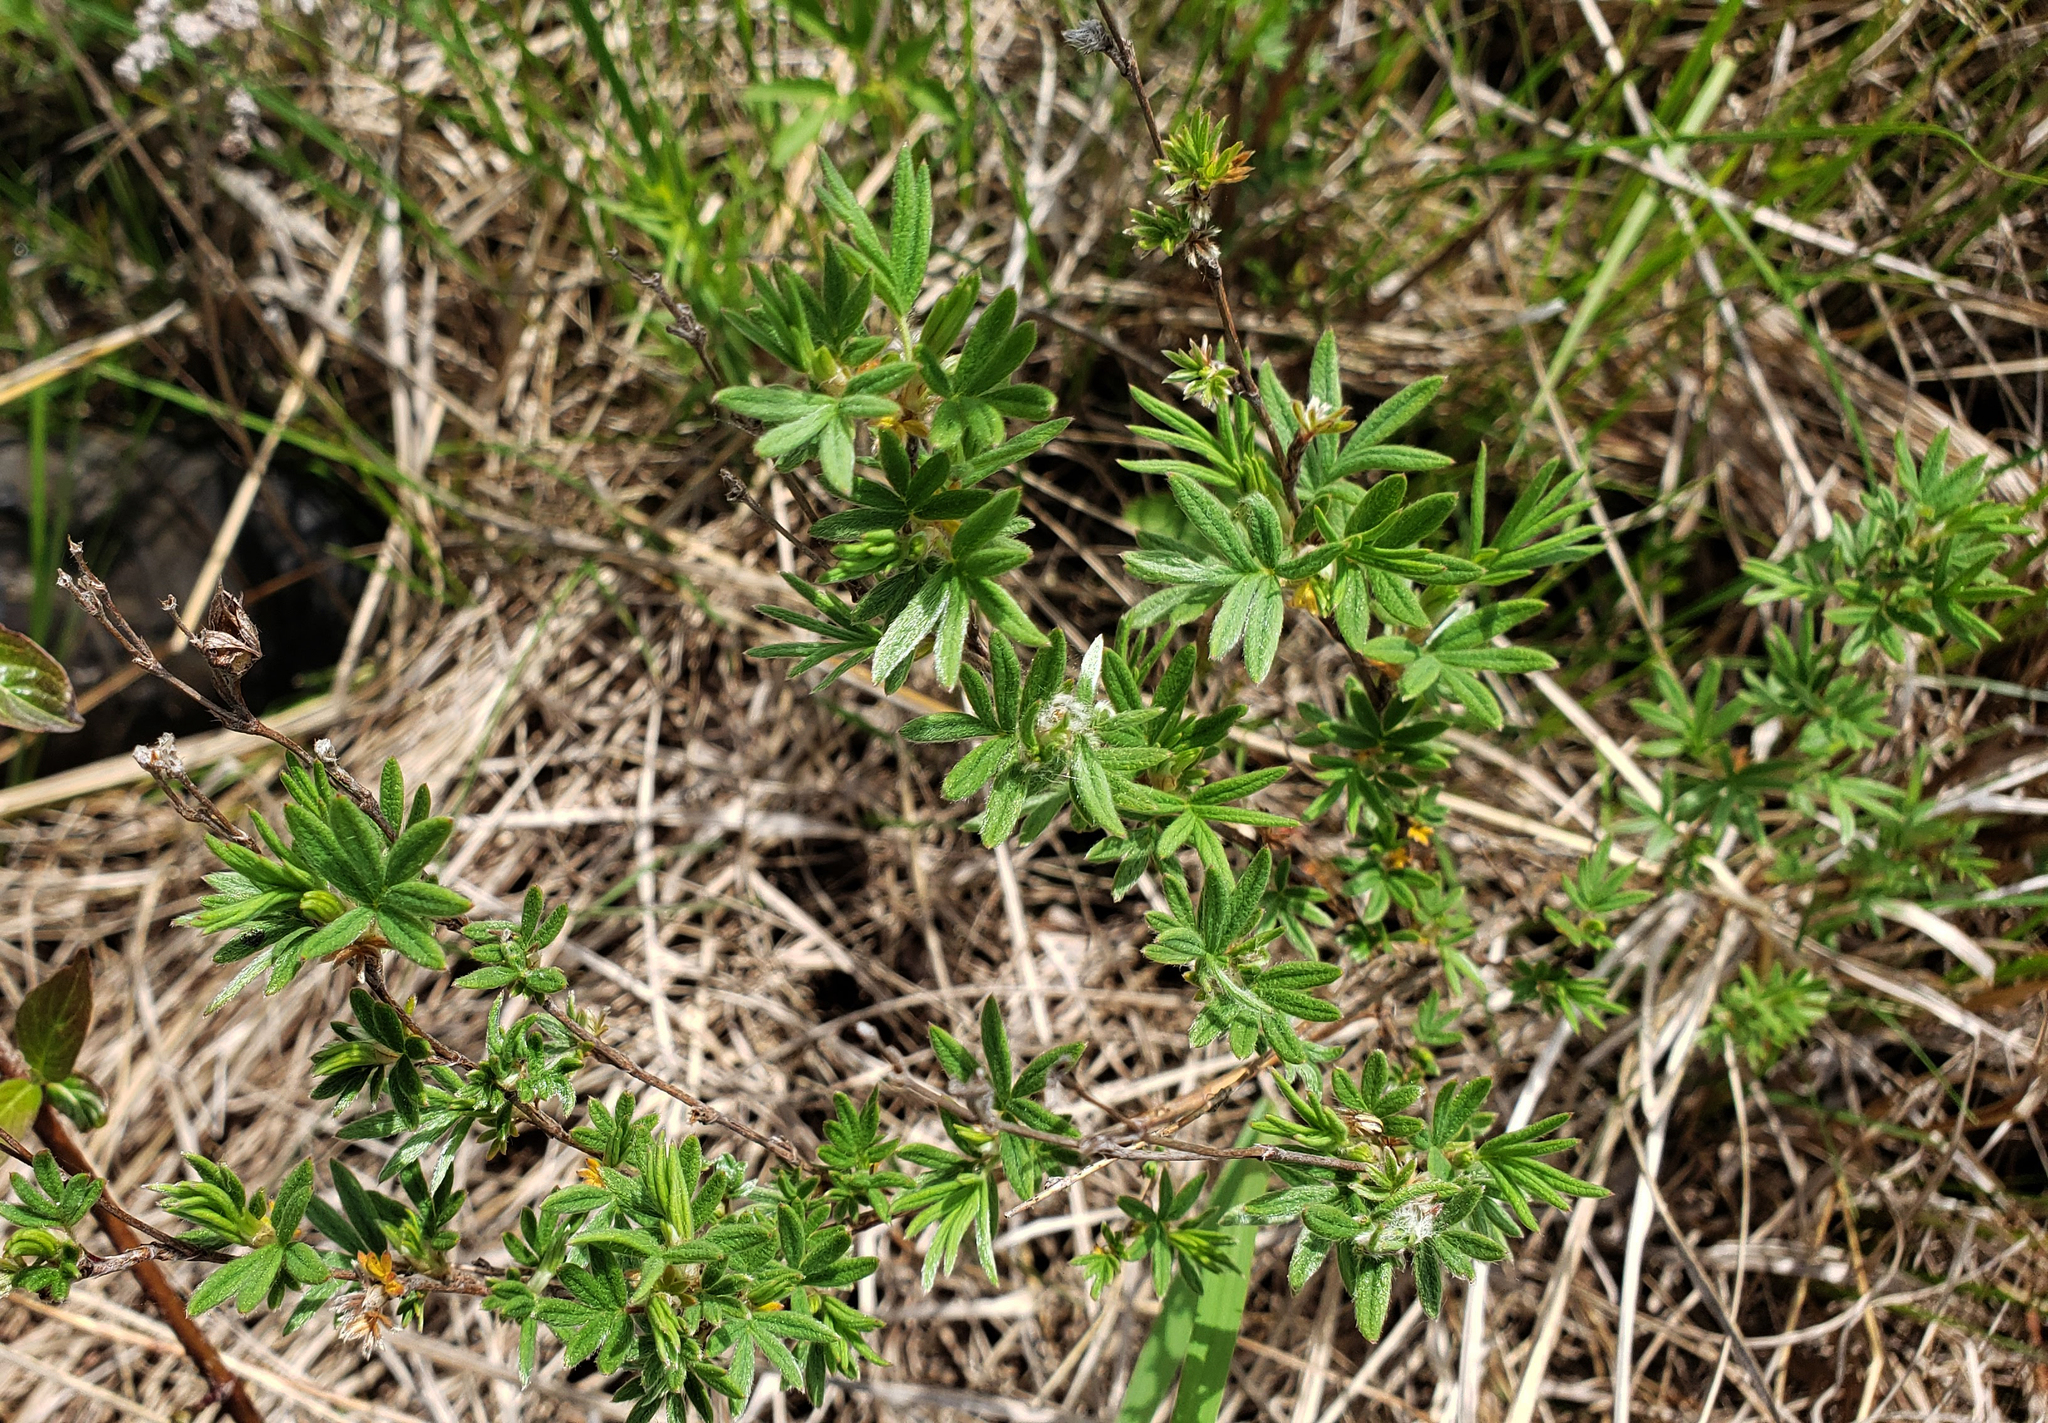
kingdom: Plantae
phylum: Tracheophyta
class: Magnoliopsida
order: Rosales
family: Rosaceae
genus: Dasiphora
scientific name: Dasiphora fruticosa
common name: Shrubby cinquefoil
